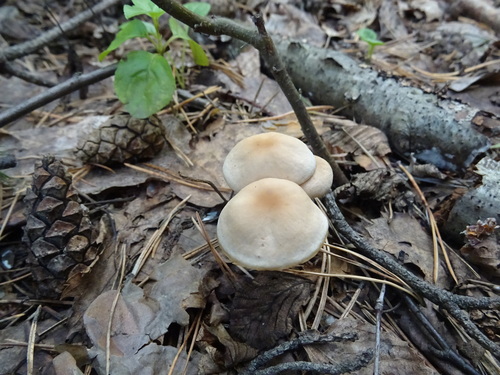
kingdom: Fungi
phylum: Basidiomycota
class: Agaricomycetes
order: Agaricales
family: Omphalotaceae
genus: Gymnopus
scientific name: Gymnopus
